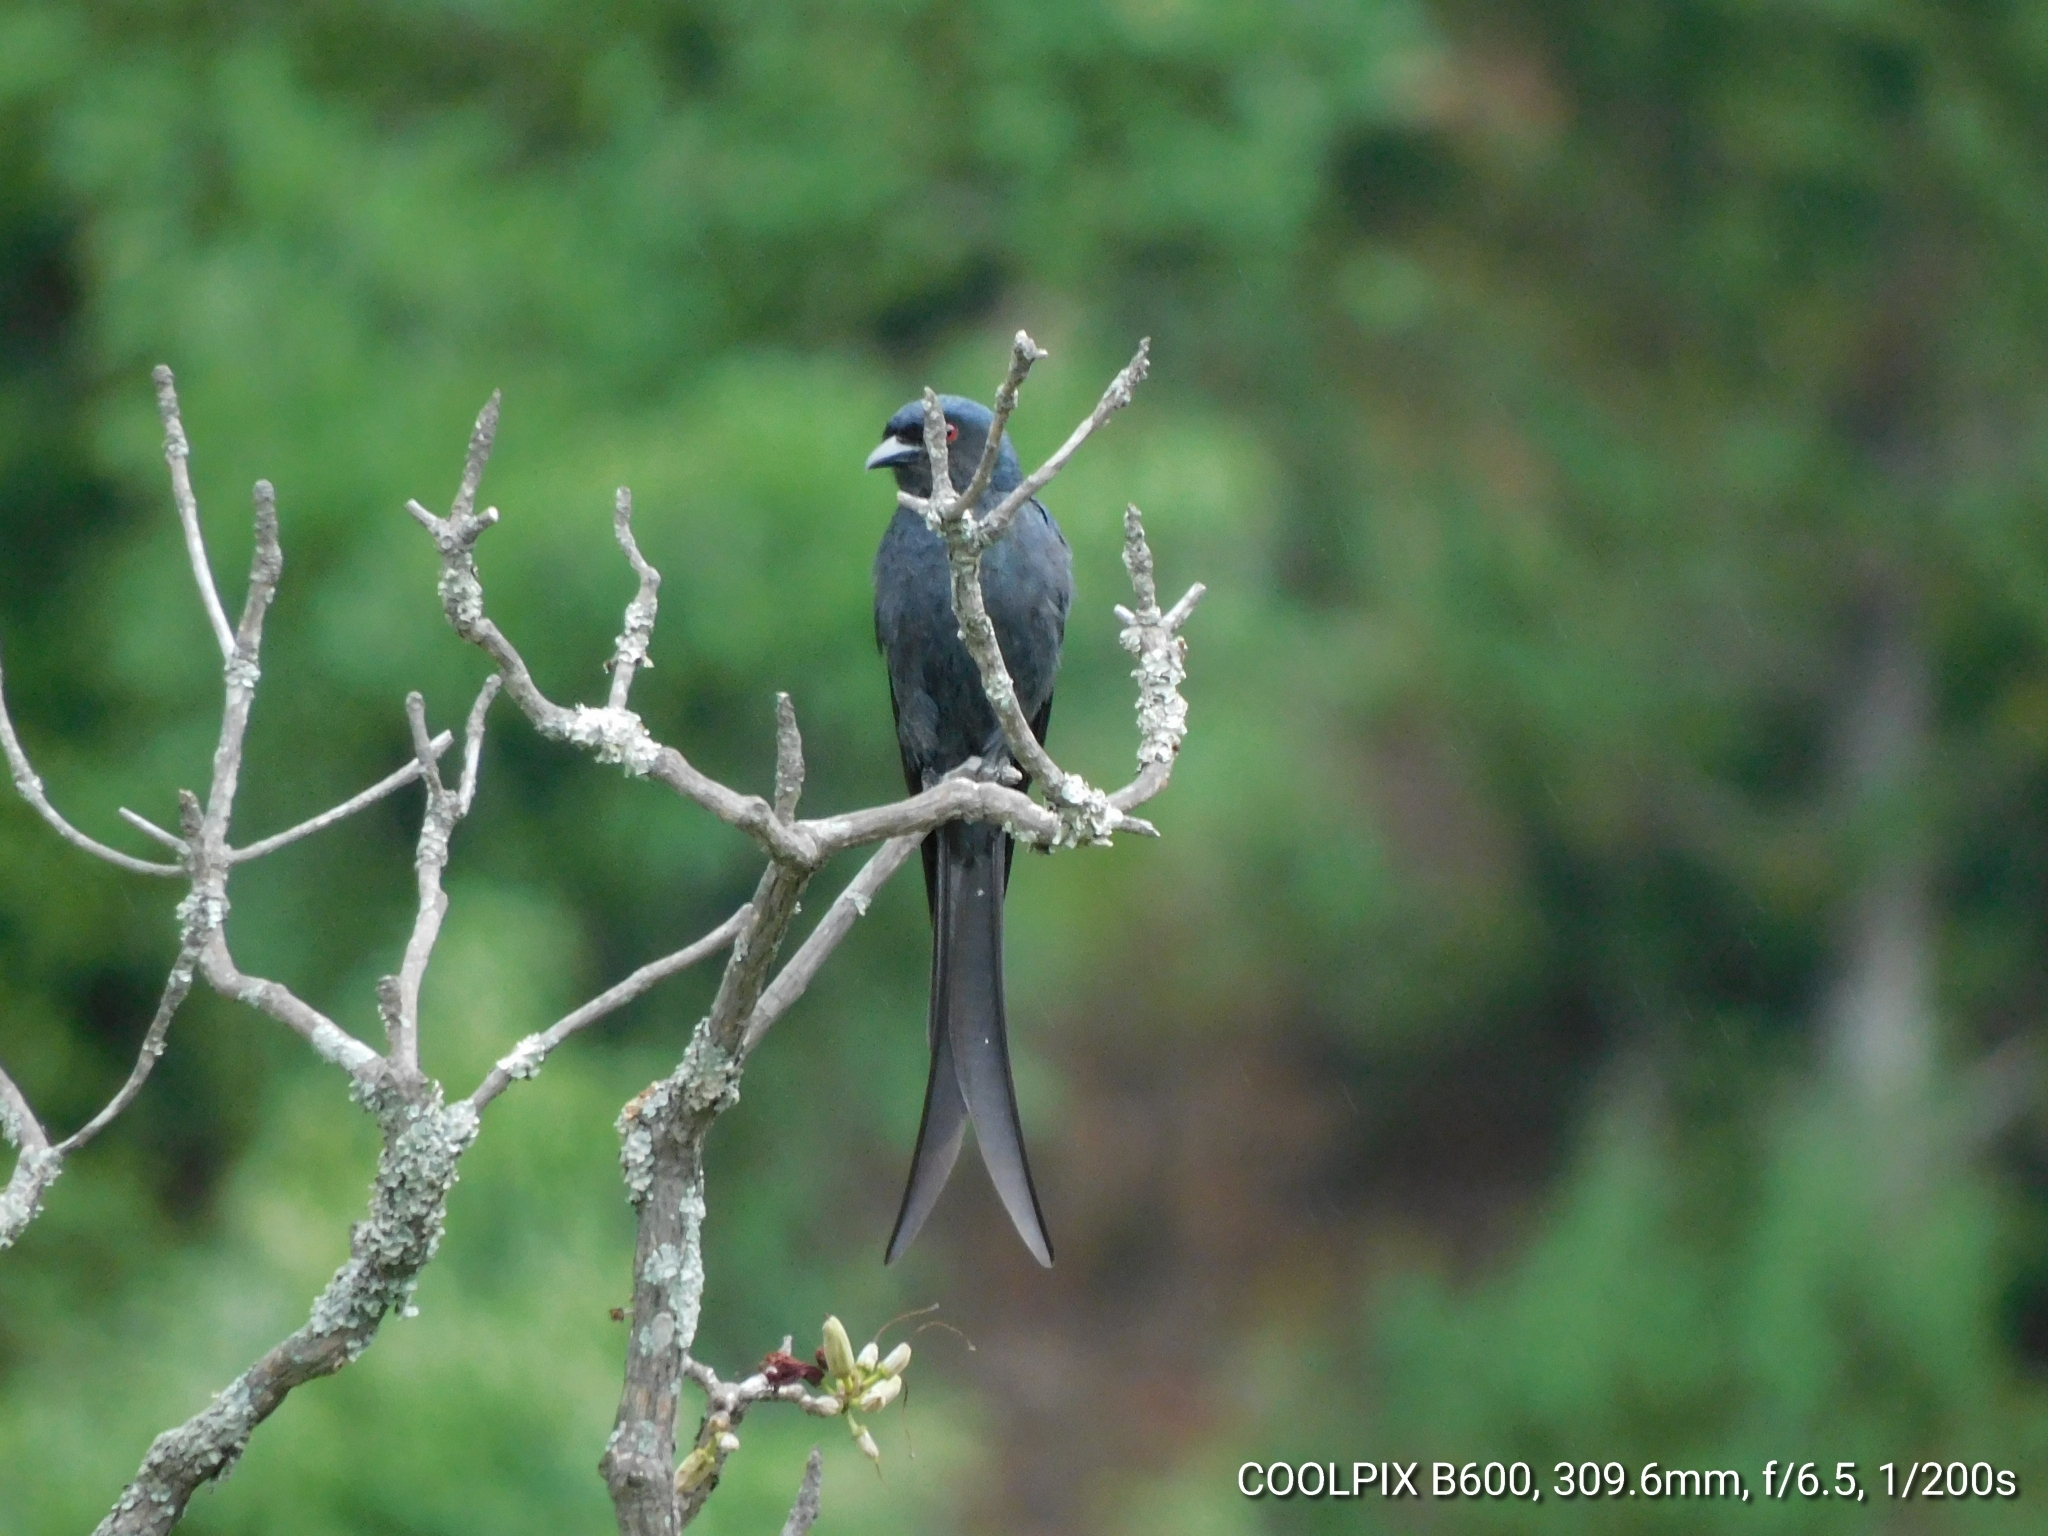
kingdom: Animalia
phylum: Chordata
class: Aves
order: Passeriformes
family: Dicruridae
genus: Dicrurus
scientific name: Dicrurus leucophaeus
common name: Ashy drongo
